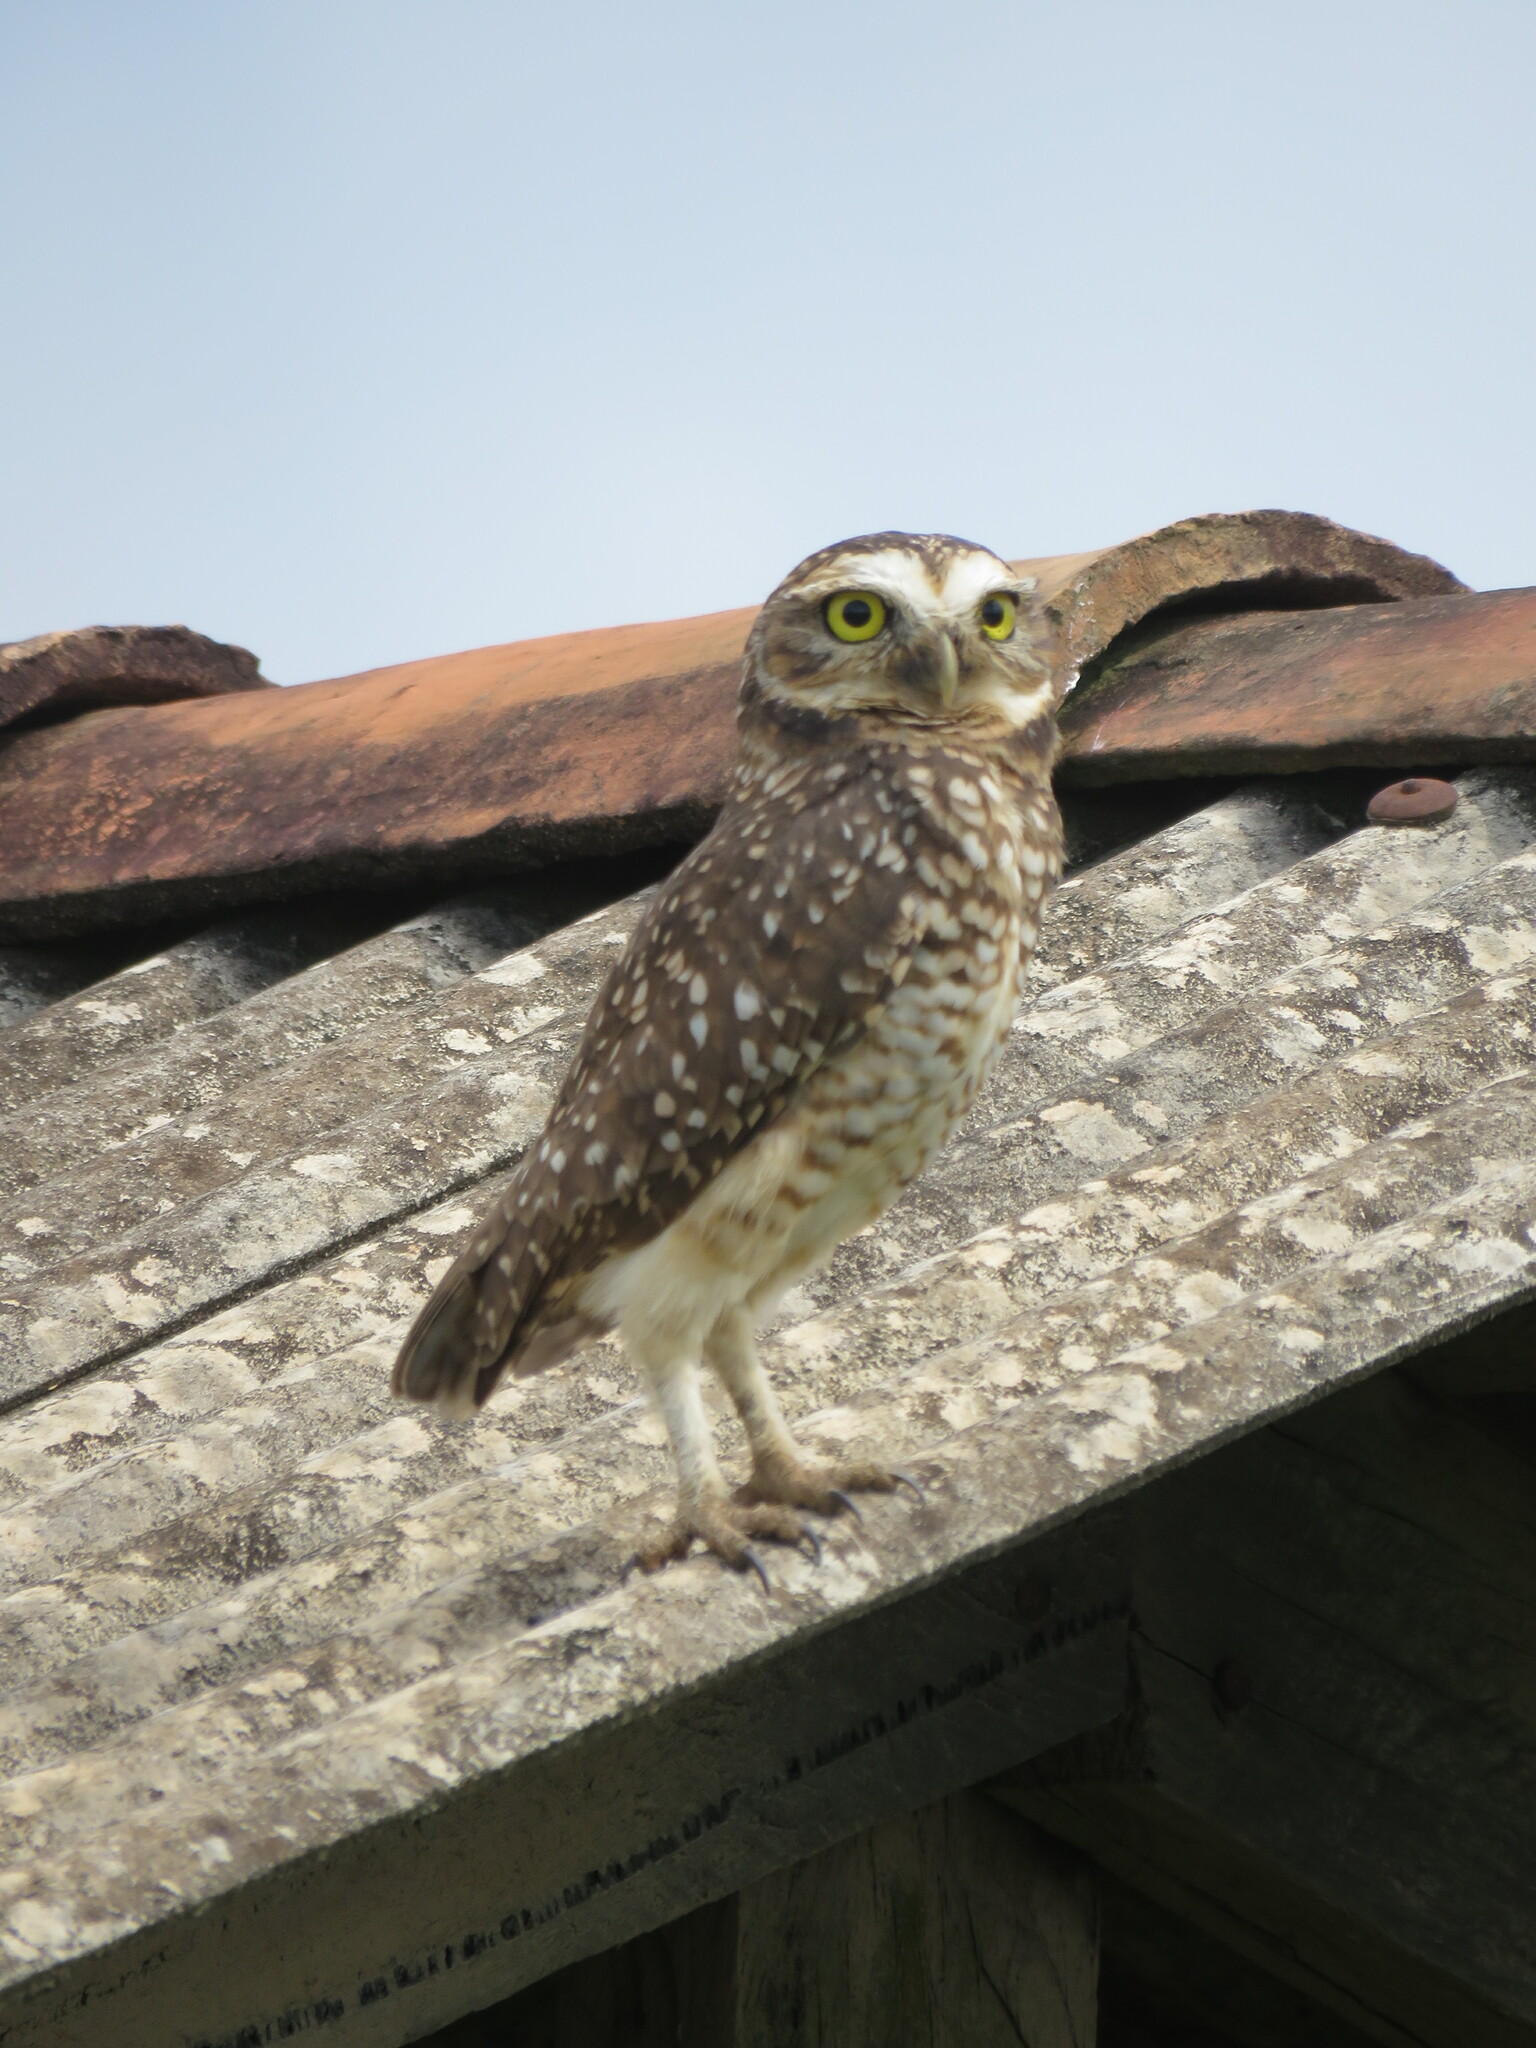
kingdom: Animalia
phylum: Chordata
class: Aves
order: Strigiformes
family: Strigidae
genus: Athene
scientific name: Athene cunicularia
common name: Burrowing owl
